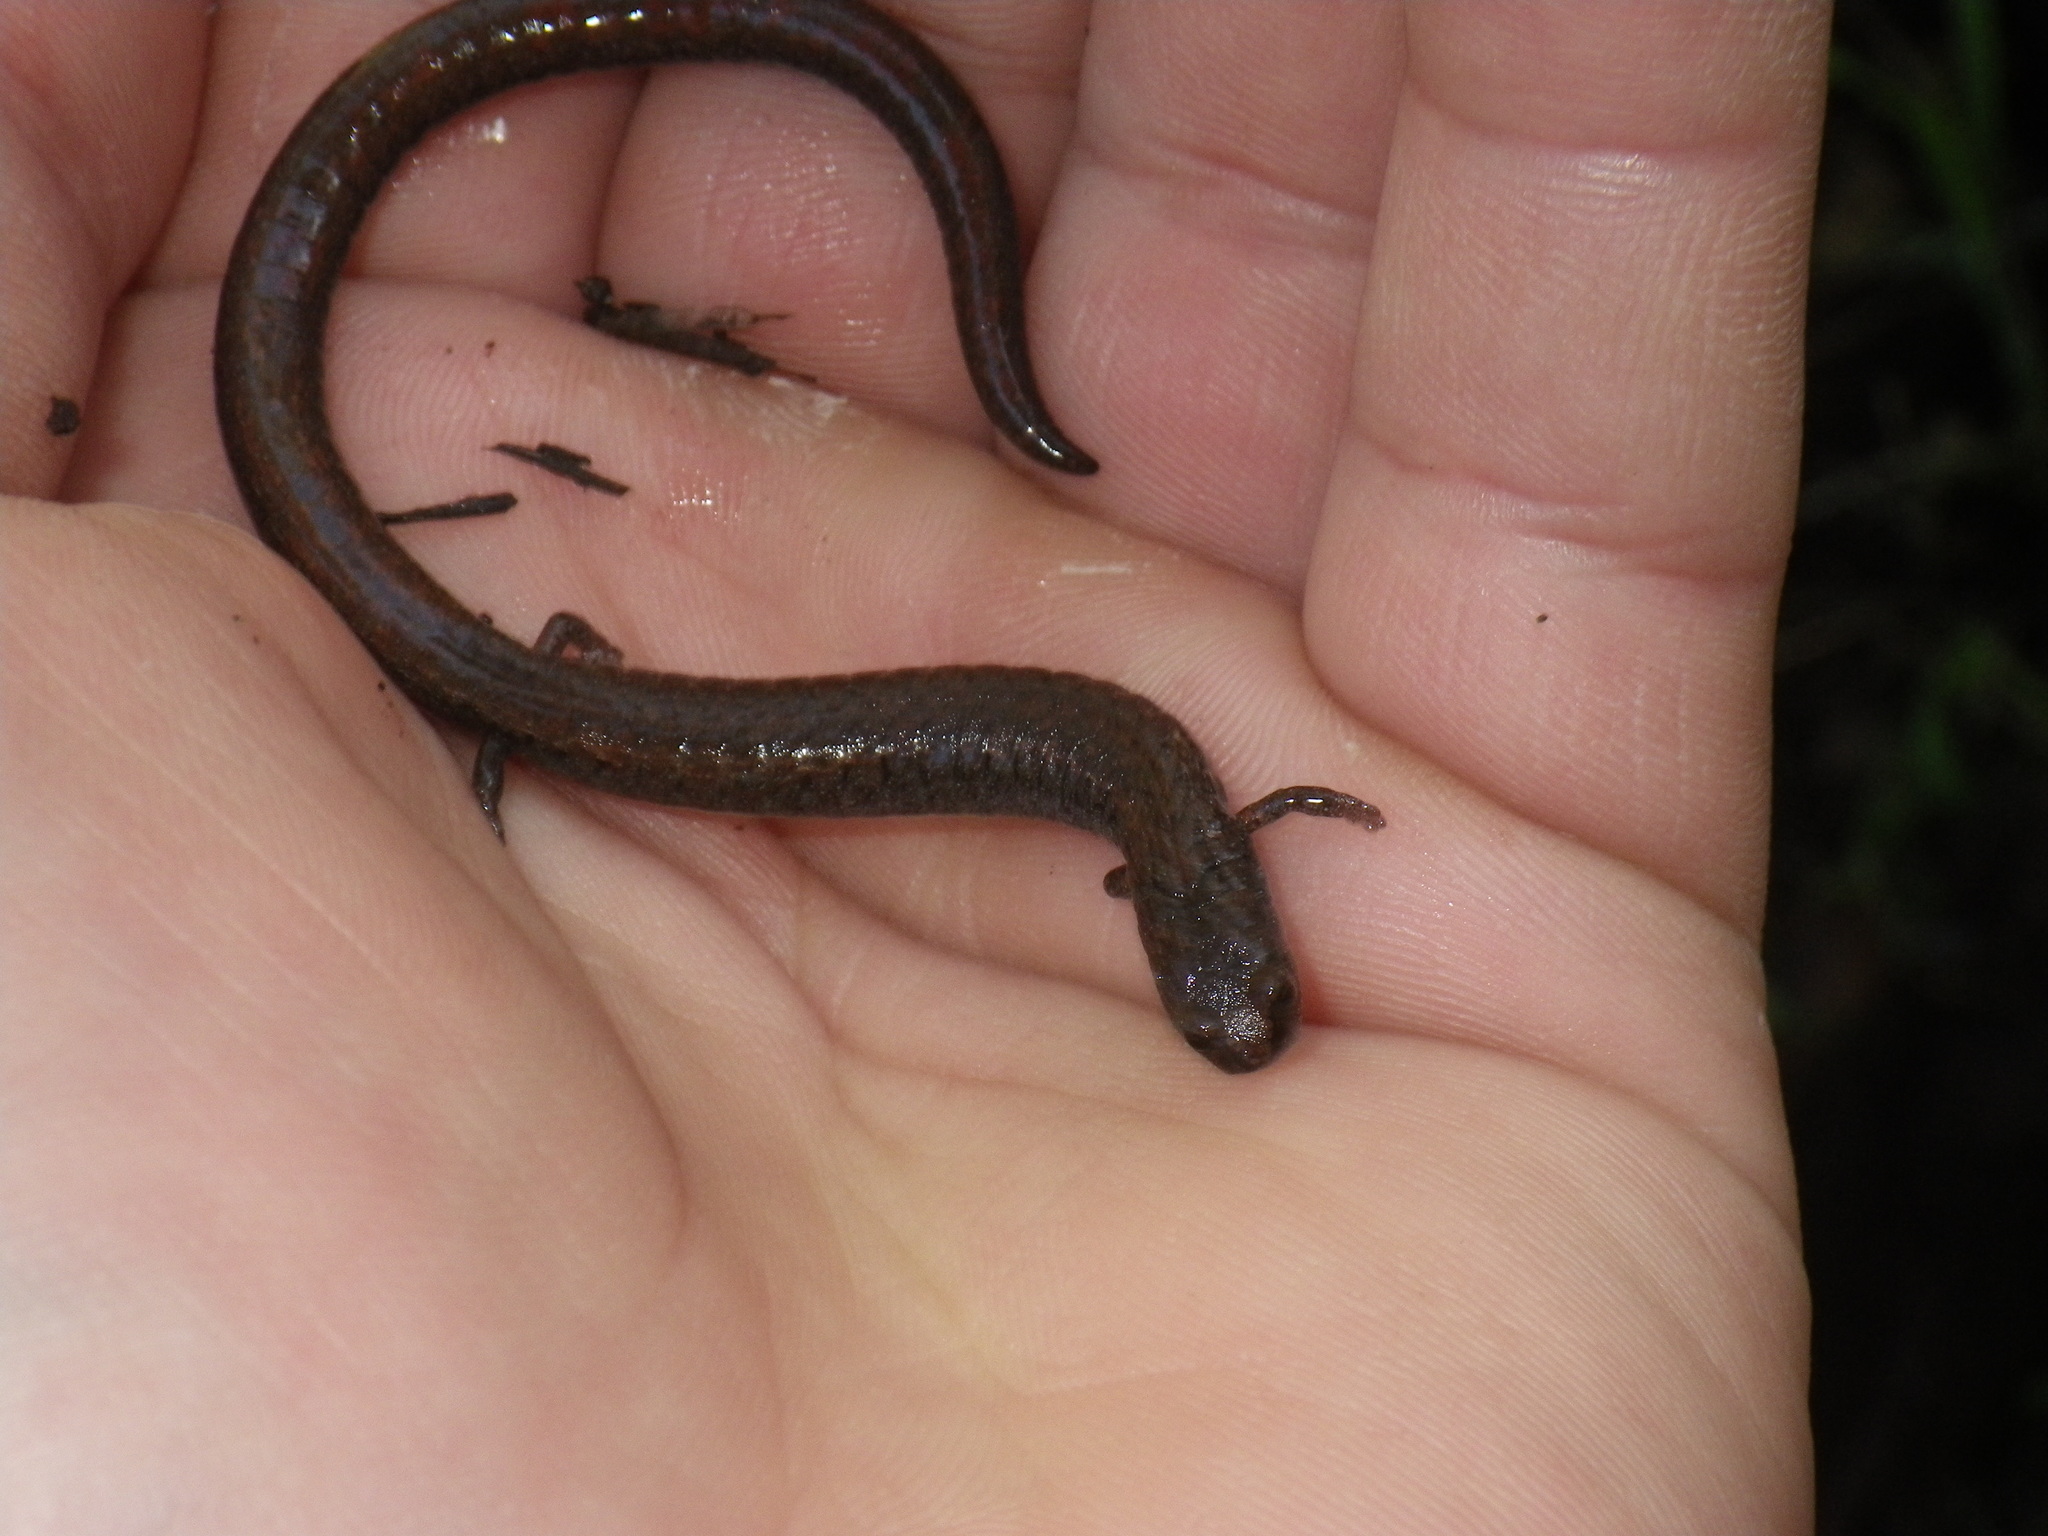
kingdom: Animalia
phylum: Chordata
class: Amphibia
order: Caudata
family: Plethodontidae
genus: Batrachoseps
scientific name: Batrachoseps attenuatus
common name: California slender salamander
